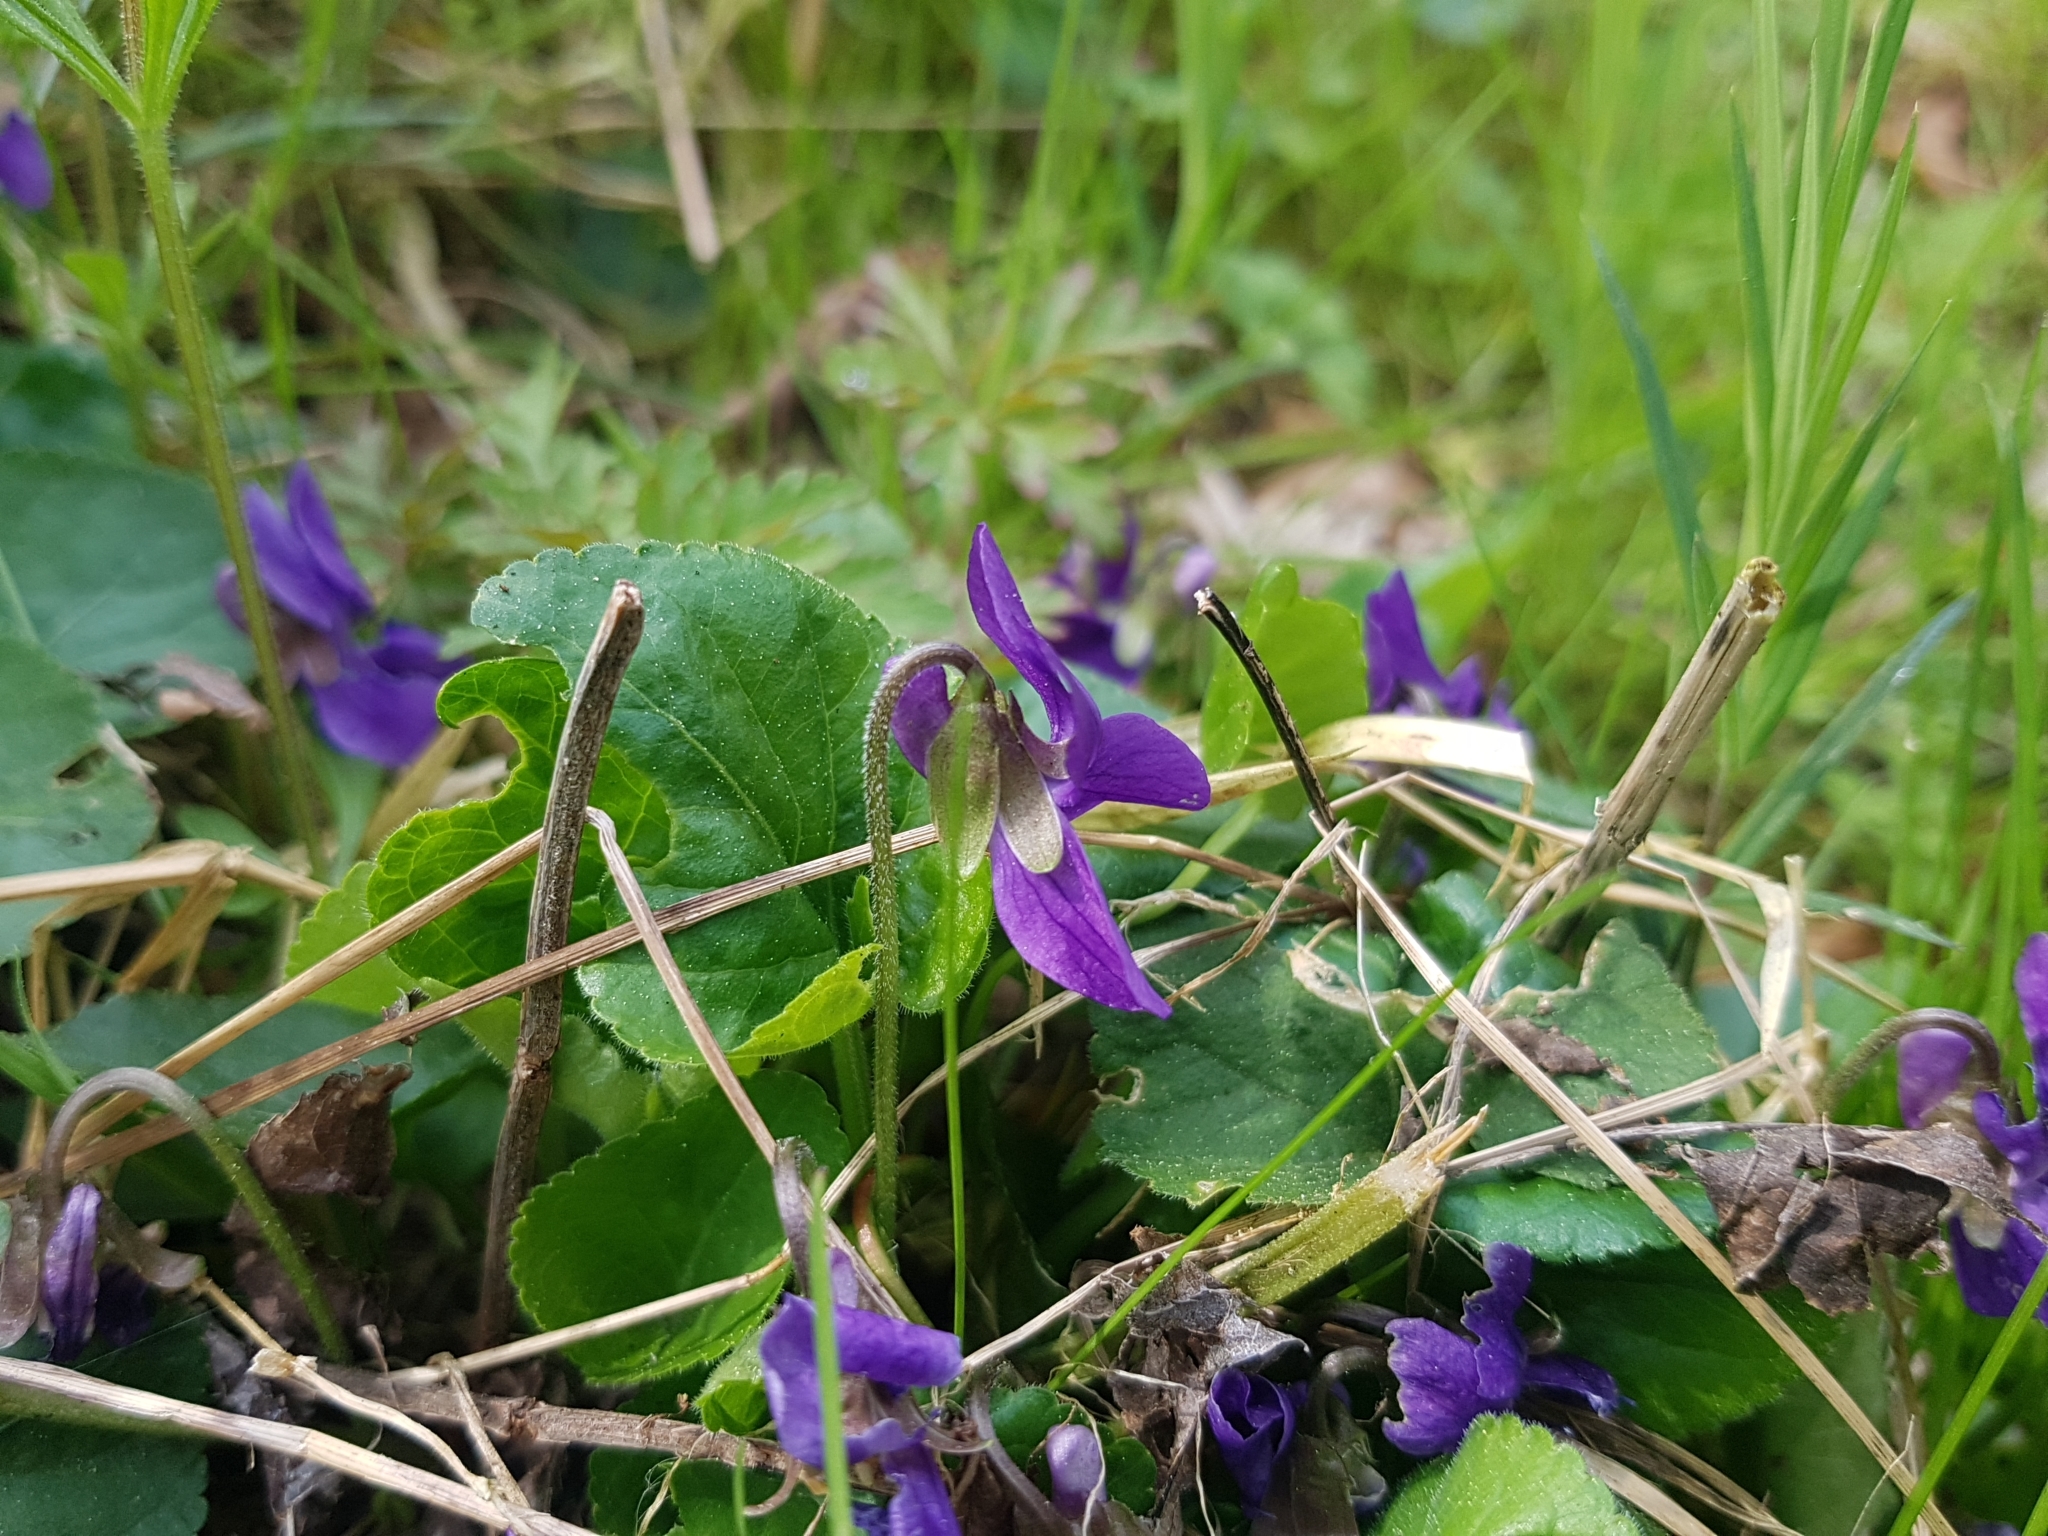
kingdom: Plantae
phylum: Tracheophyta
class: Magnoliopsida
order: Malpighiales
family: Violaceae
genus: Viola
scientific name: Viola odorata
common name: Sweet violet
